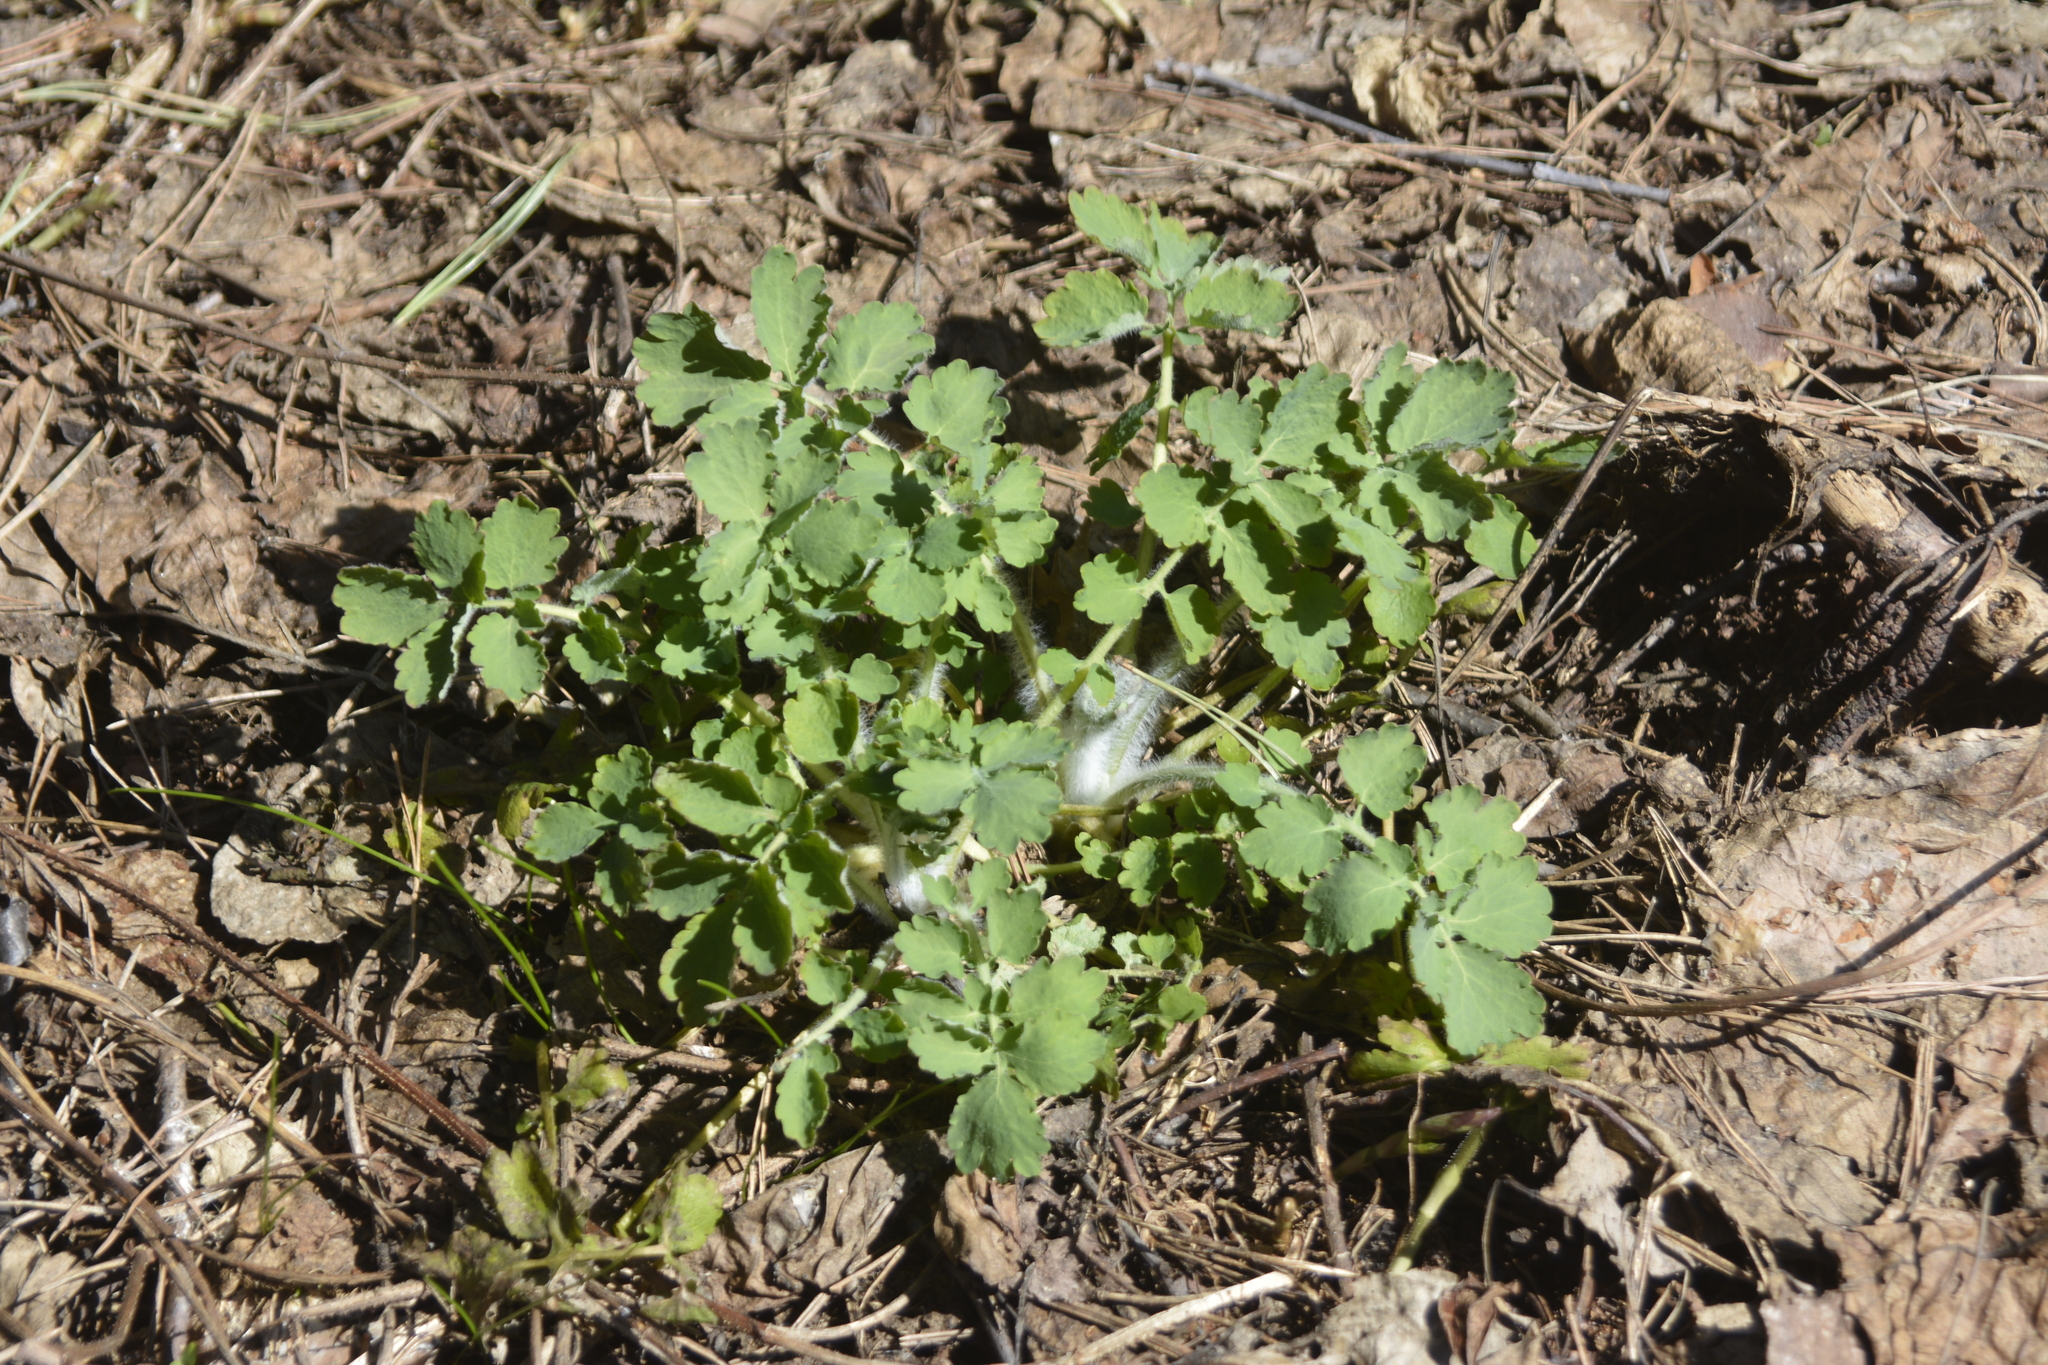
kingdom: Plantae
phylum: Tracheophyta
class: Magnoliopsida
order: Ranunculales
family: Papaveraceae
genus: Chelidonium
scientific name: Chelidonium majus
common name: Greater celandine
